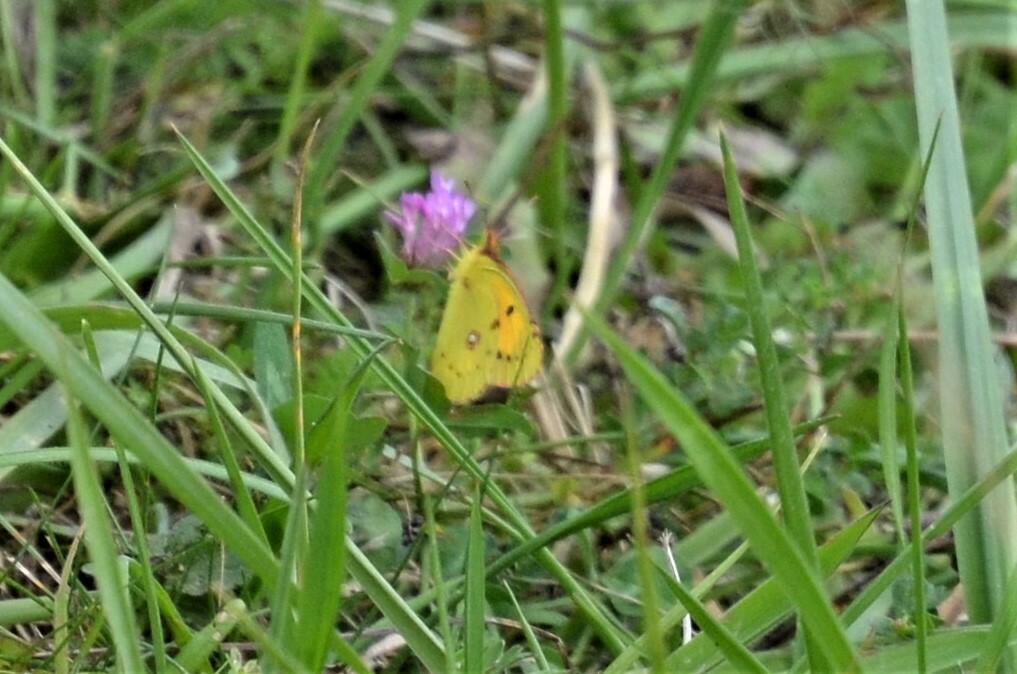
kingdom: Animalia
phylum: Arthropoda
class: Insecta
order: Lepidoptera
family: Pieridae
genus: Colias
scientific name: Colias croceus
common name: Clouded yellow
